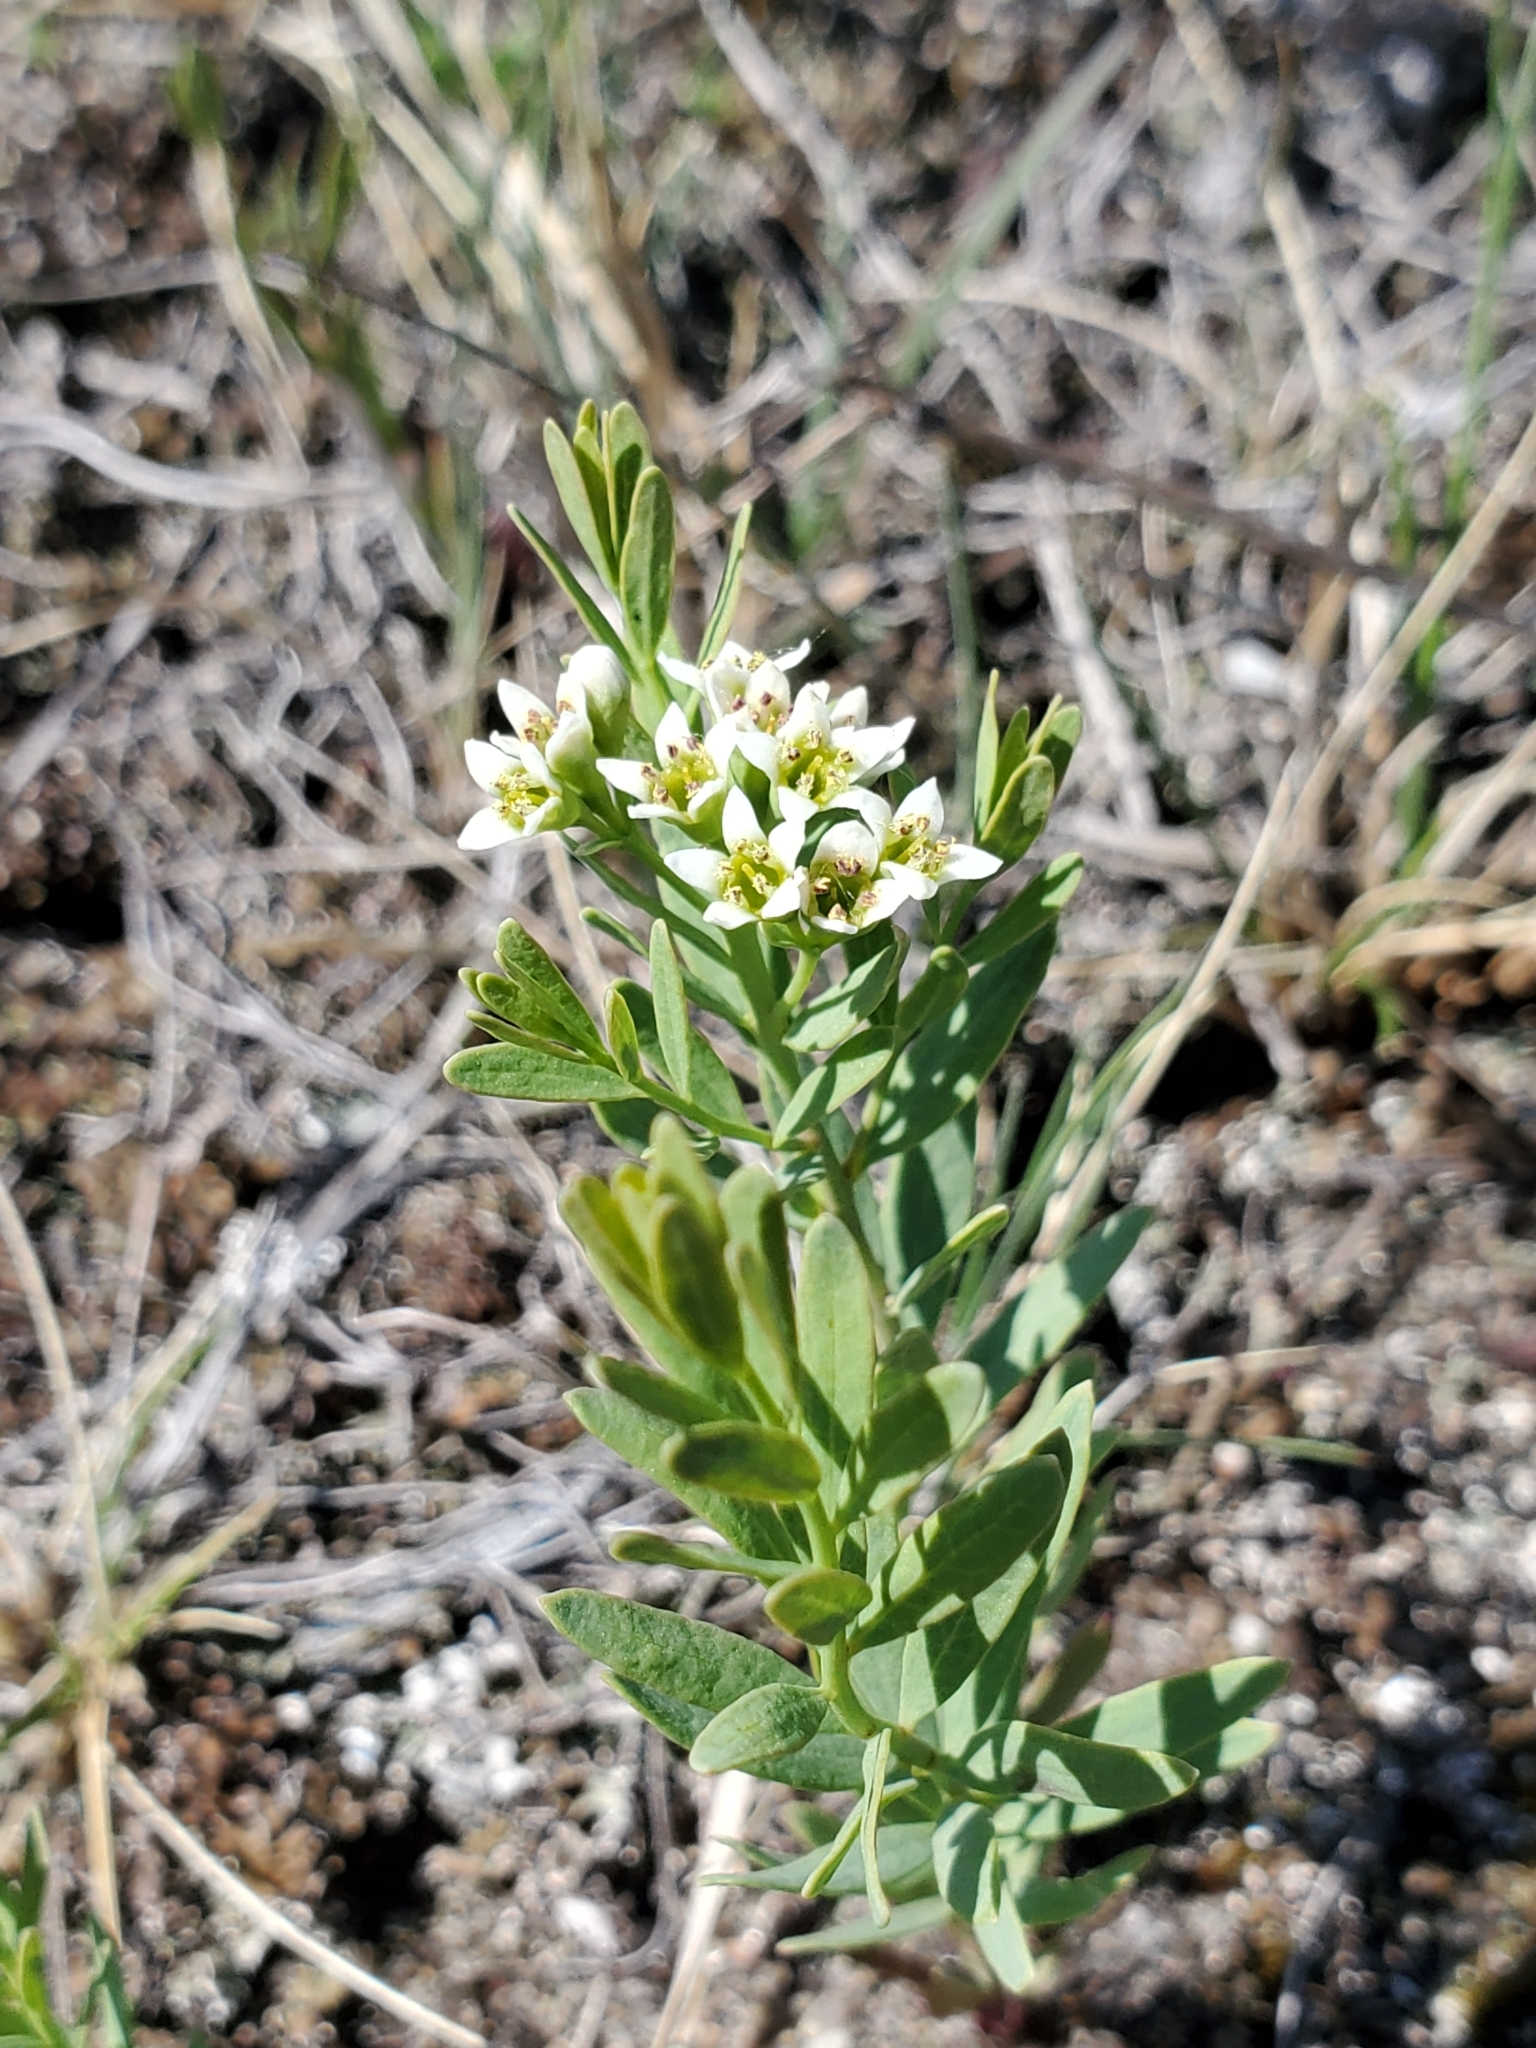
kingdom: Plantae
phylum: Tracheophyta
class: Magnoliopsida
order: Santalales
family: Comandraceae
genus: Comandra
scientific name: Comandra umbellata
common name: Bastard toadflax
